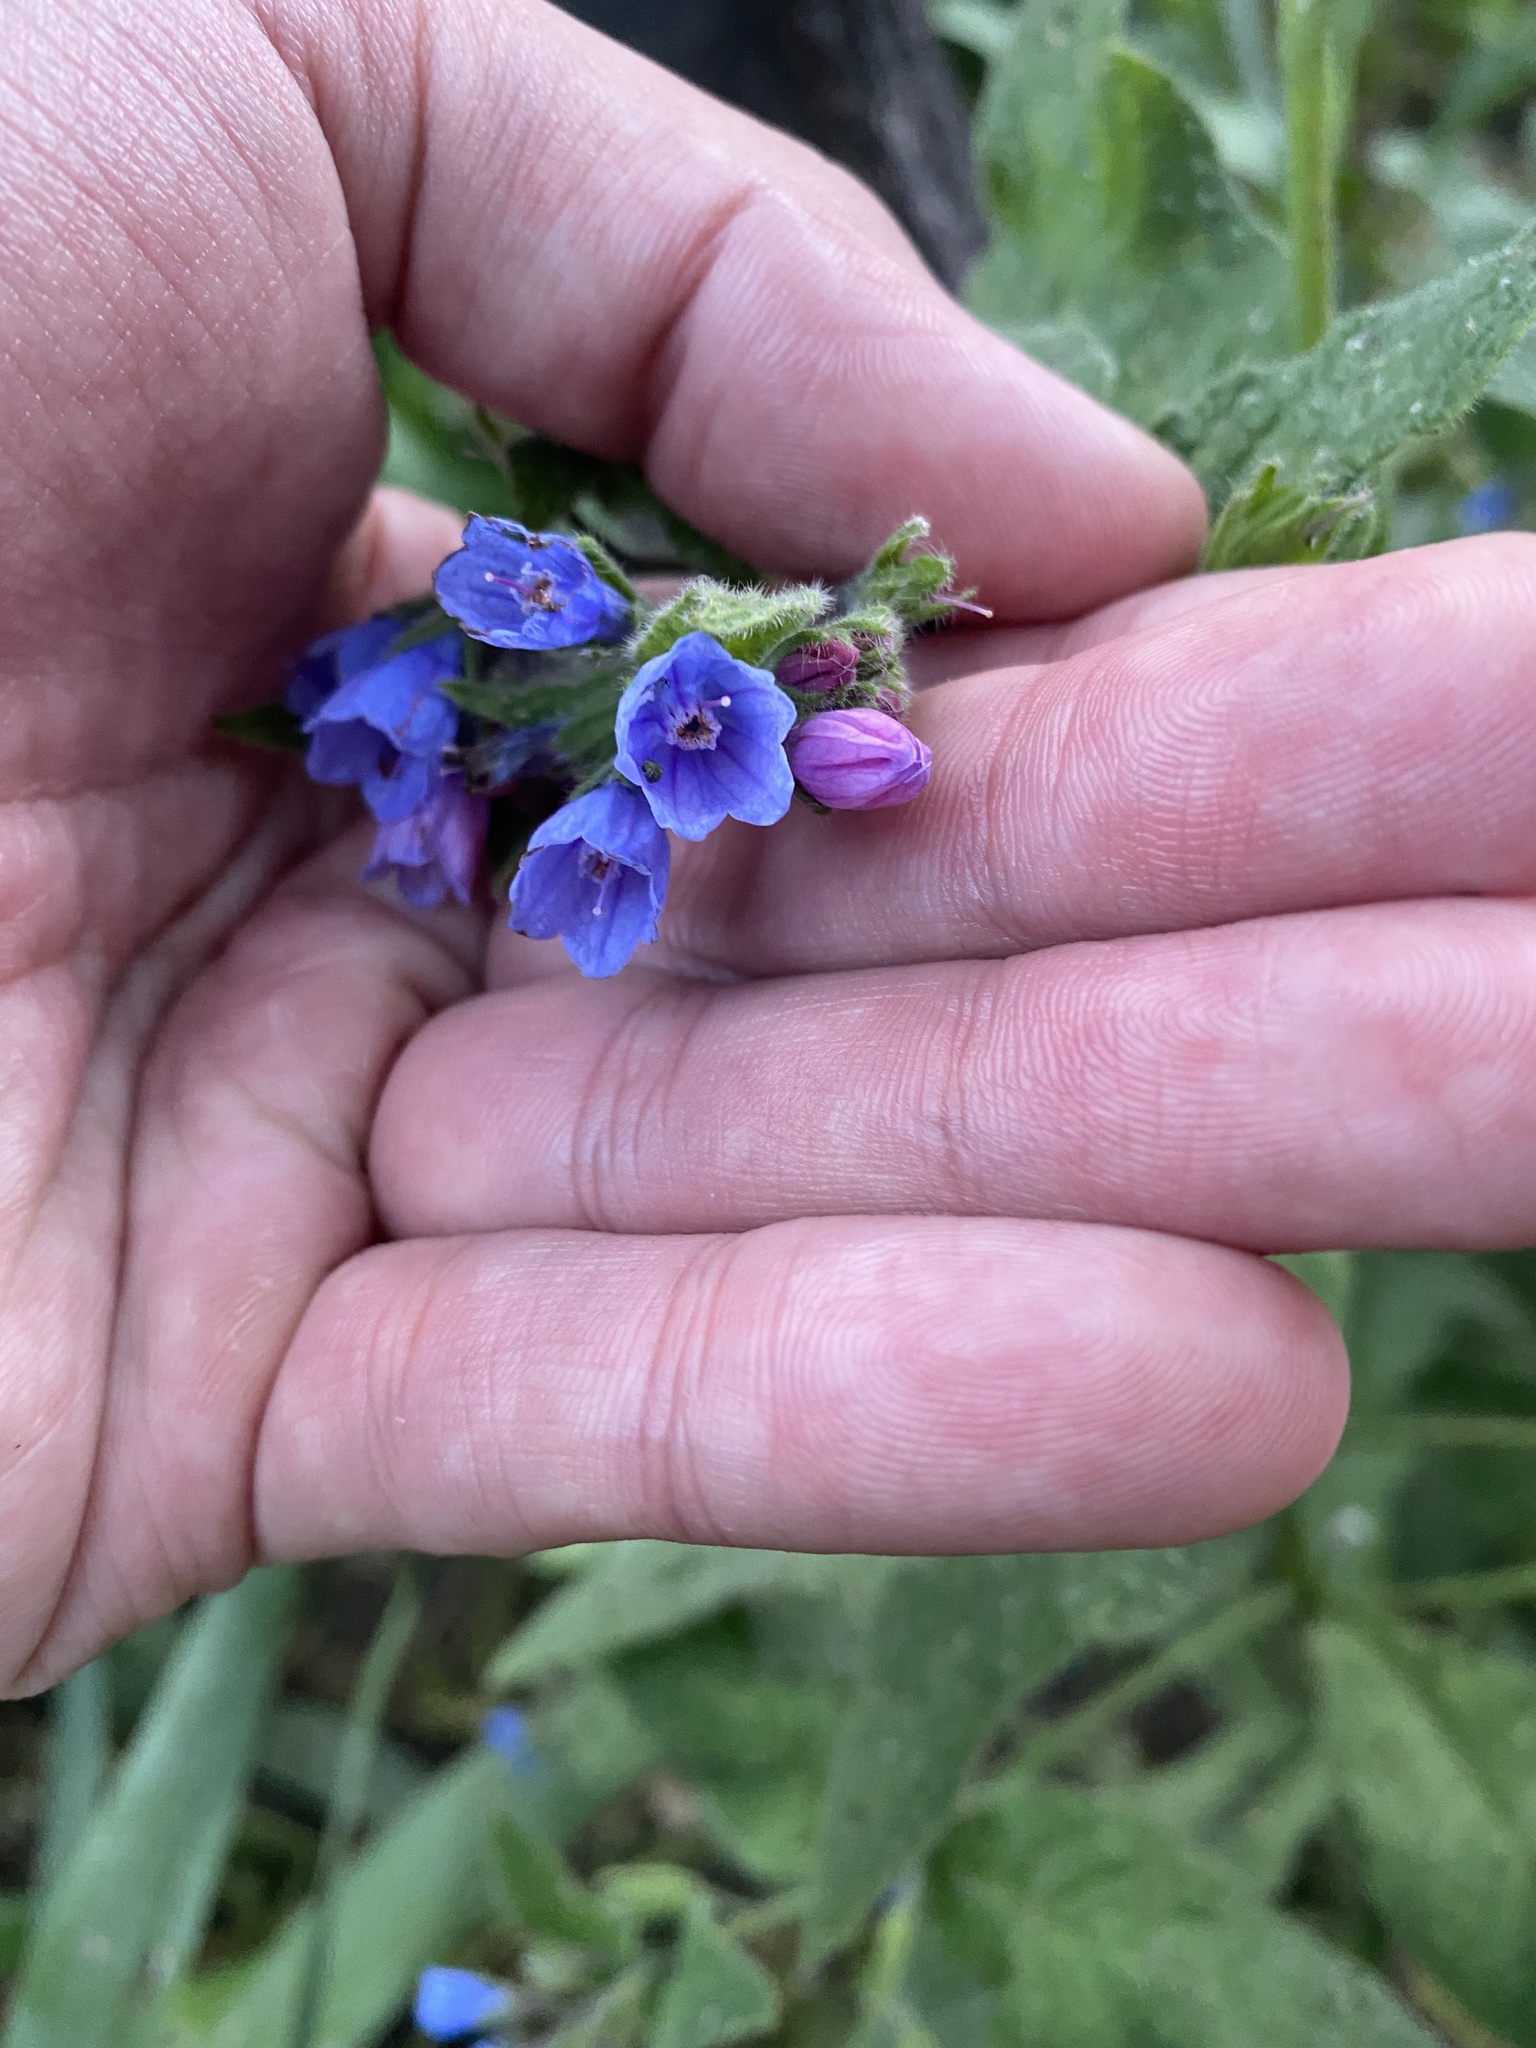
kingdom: Plantae
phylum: Tracheophyta
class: Magnoliopsida
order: Boraginales
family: Boraginaceae
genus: Symphytum
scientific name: Symphytum asperum
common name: Prickly comfrey
